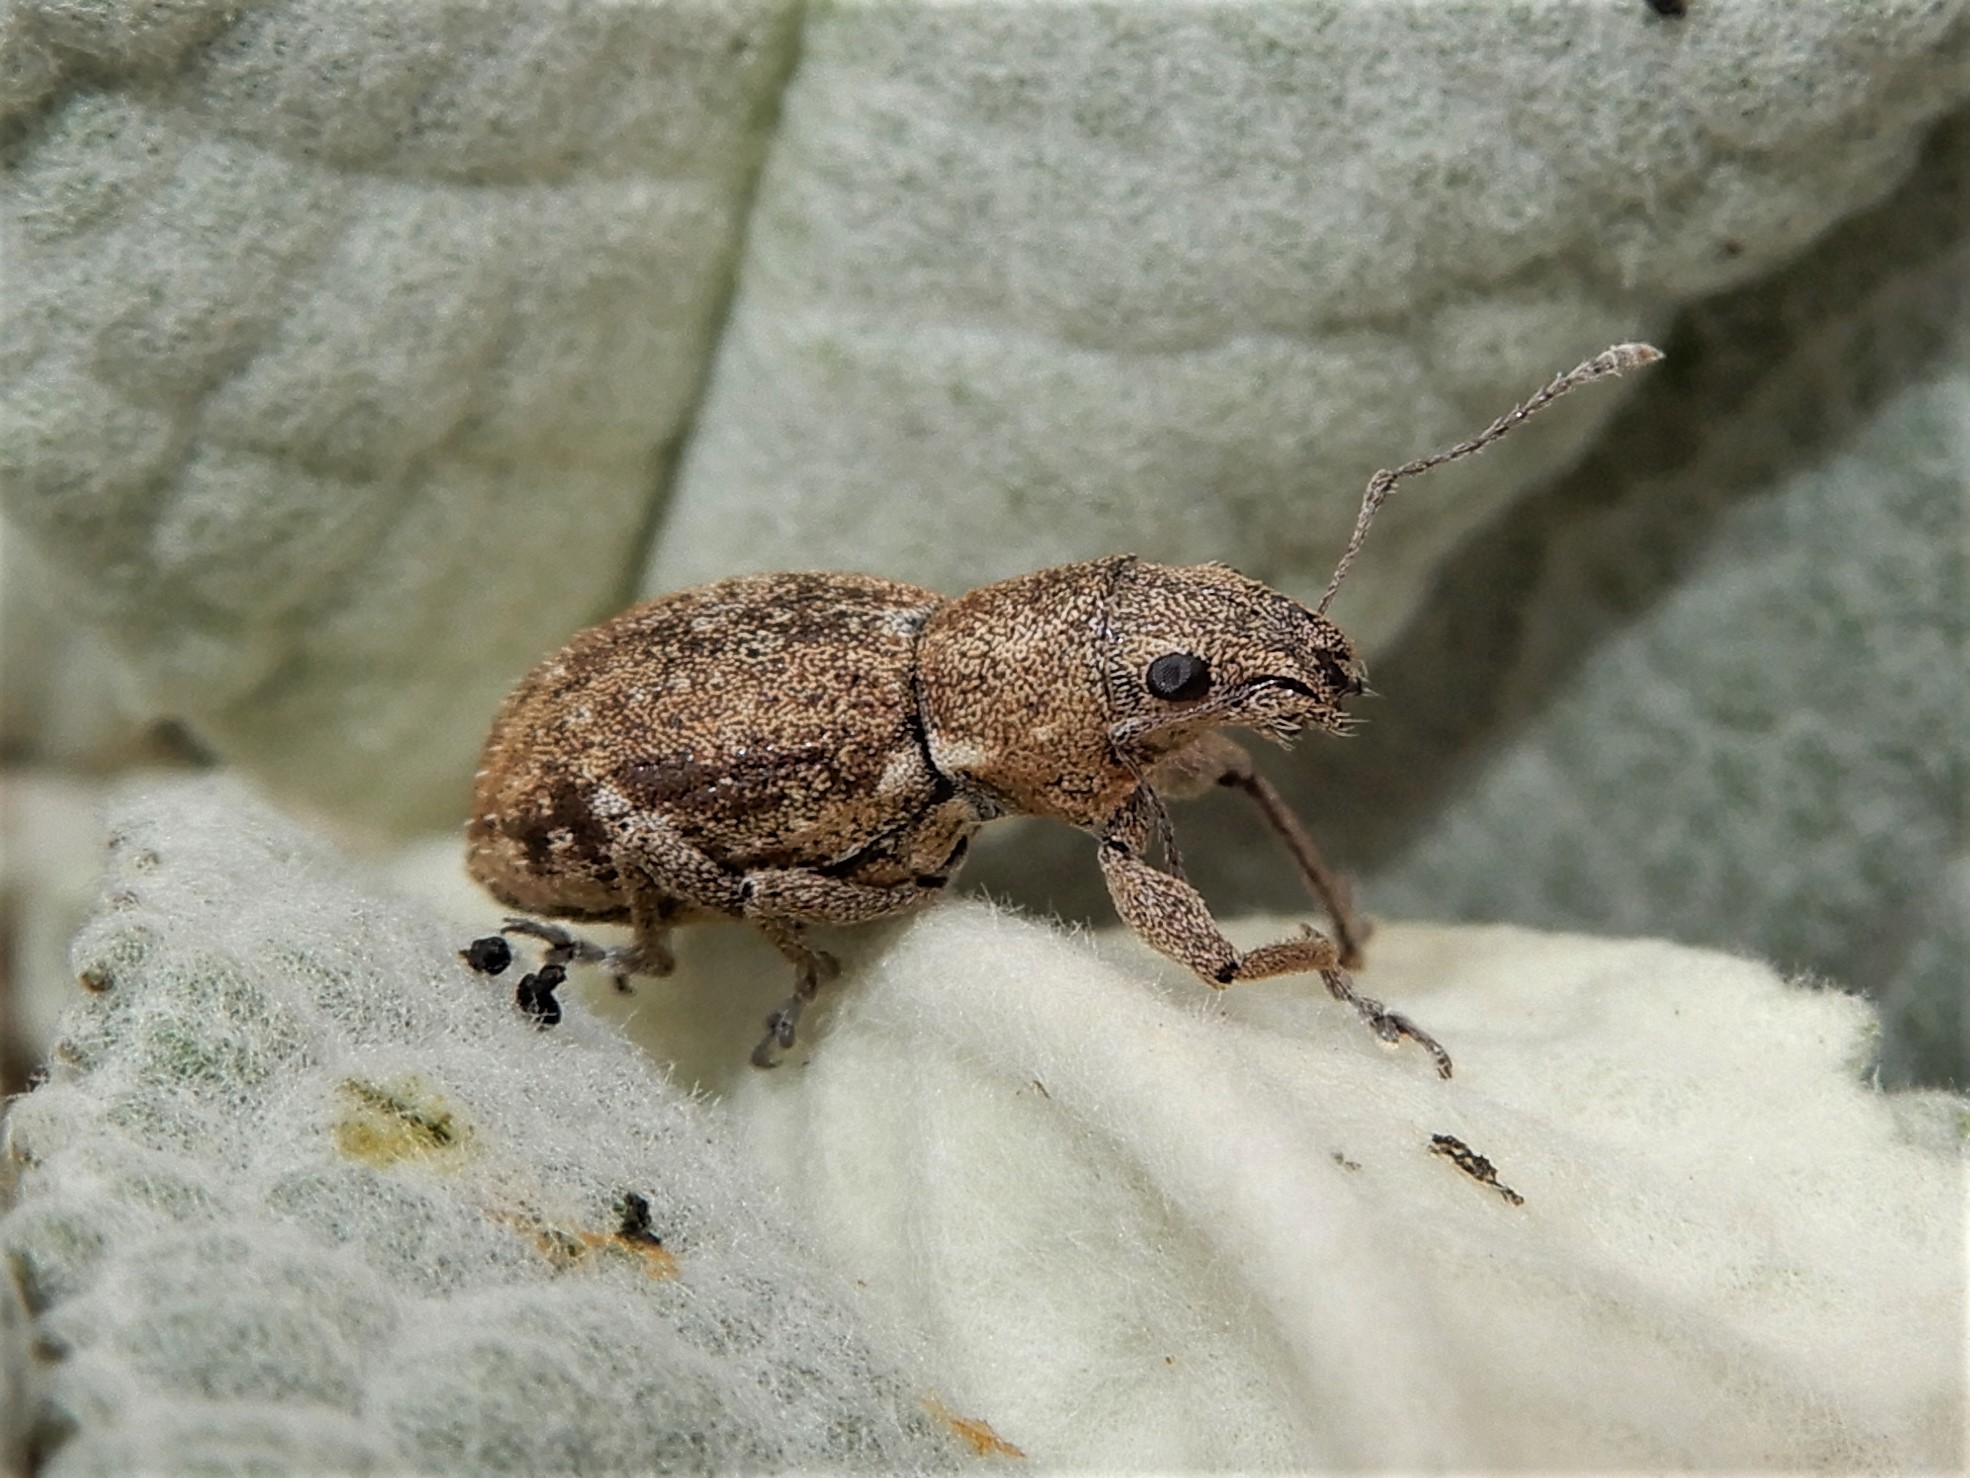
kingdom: Animalia
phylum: Arthropoda
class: Insecta
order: Coleoptera
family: Curculionidae
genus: Naupactus
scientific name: Naupactus cervinus
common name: Fuller rose beetle
